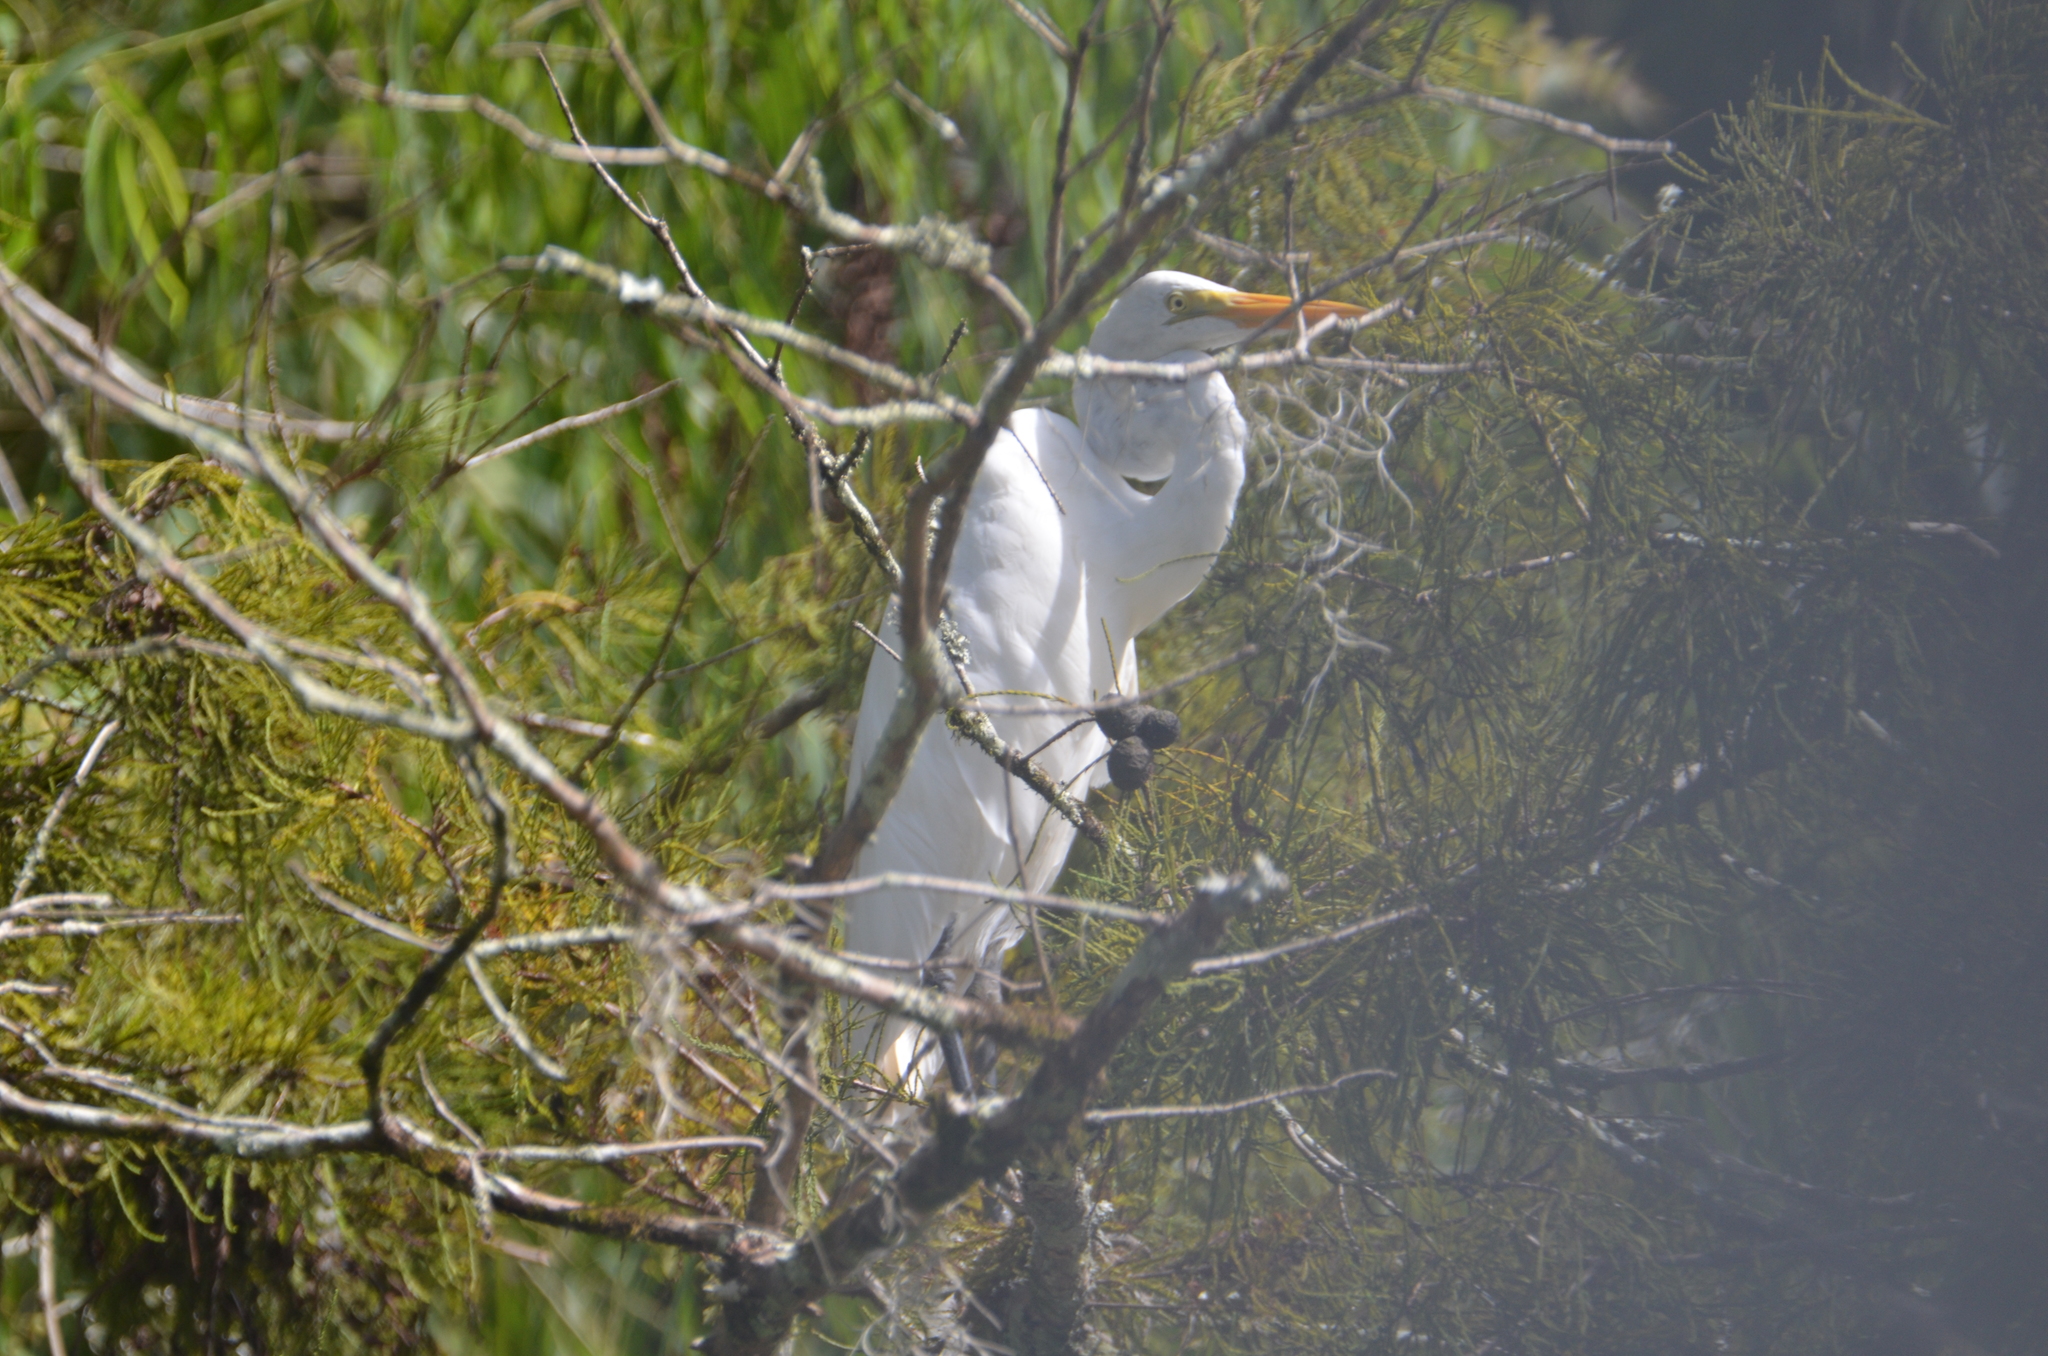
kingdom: Animalia
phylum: Chordata
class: Aves
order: Pelecaniformes
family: Ardeidae
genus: Ardea
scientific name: Ardea alba
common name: Great egret
